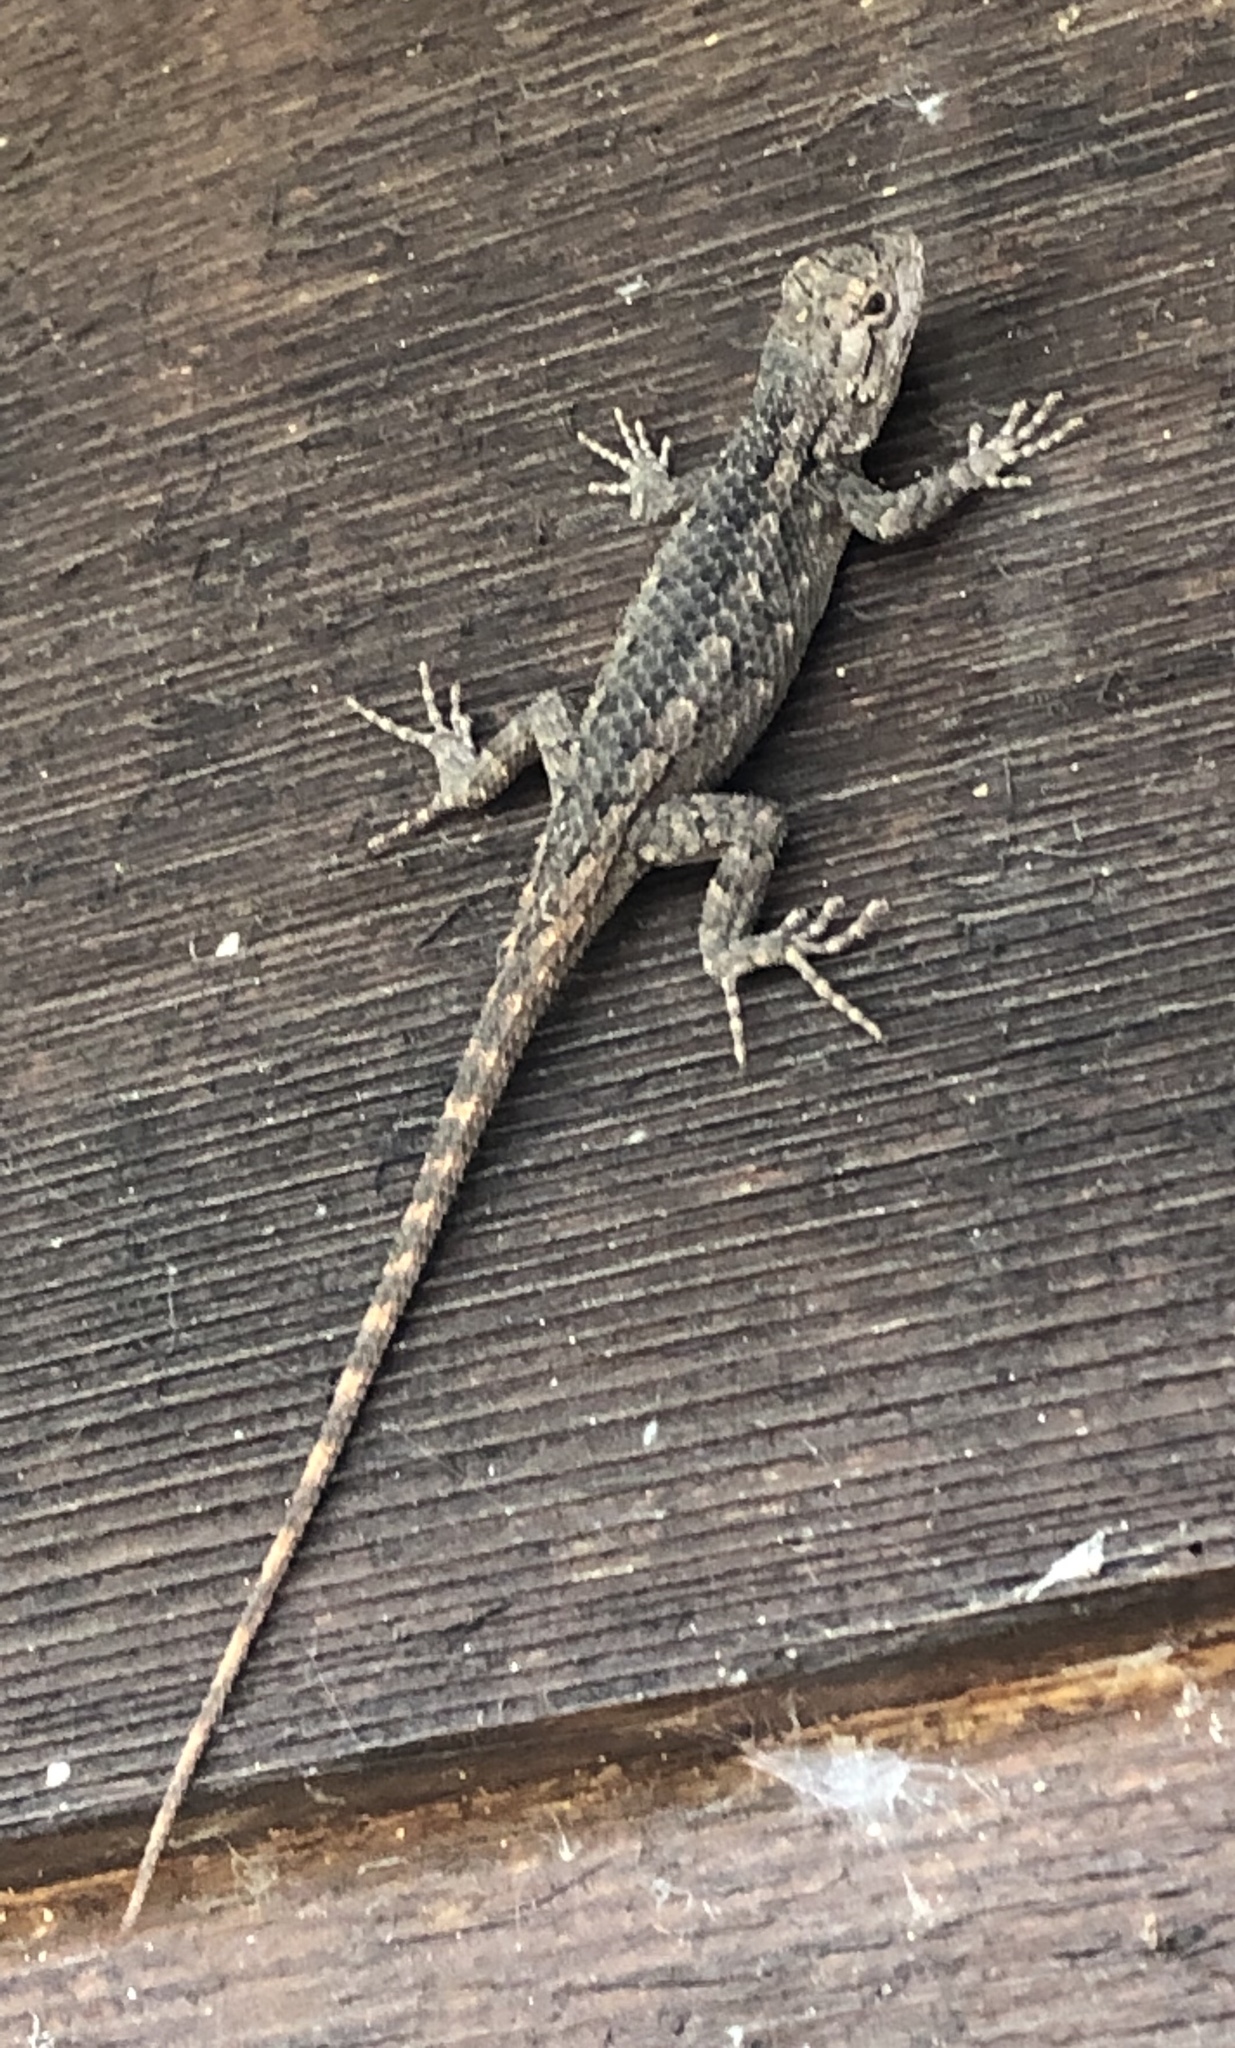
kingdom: Animalia
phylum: Chordata
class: Squamata
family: Phrynosomatidae
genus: Sceloporus
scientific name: Sceloporus olivaceus
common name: Texas spiny lizard
